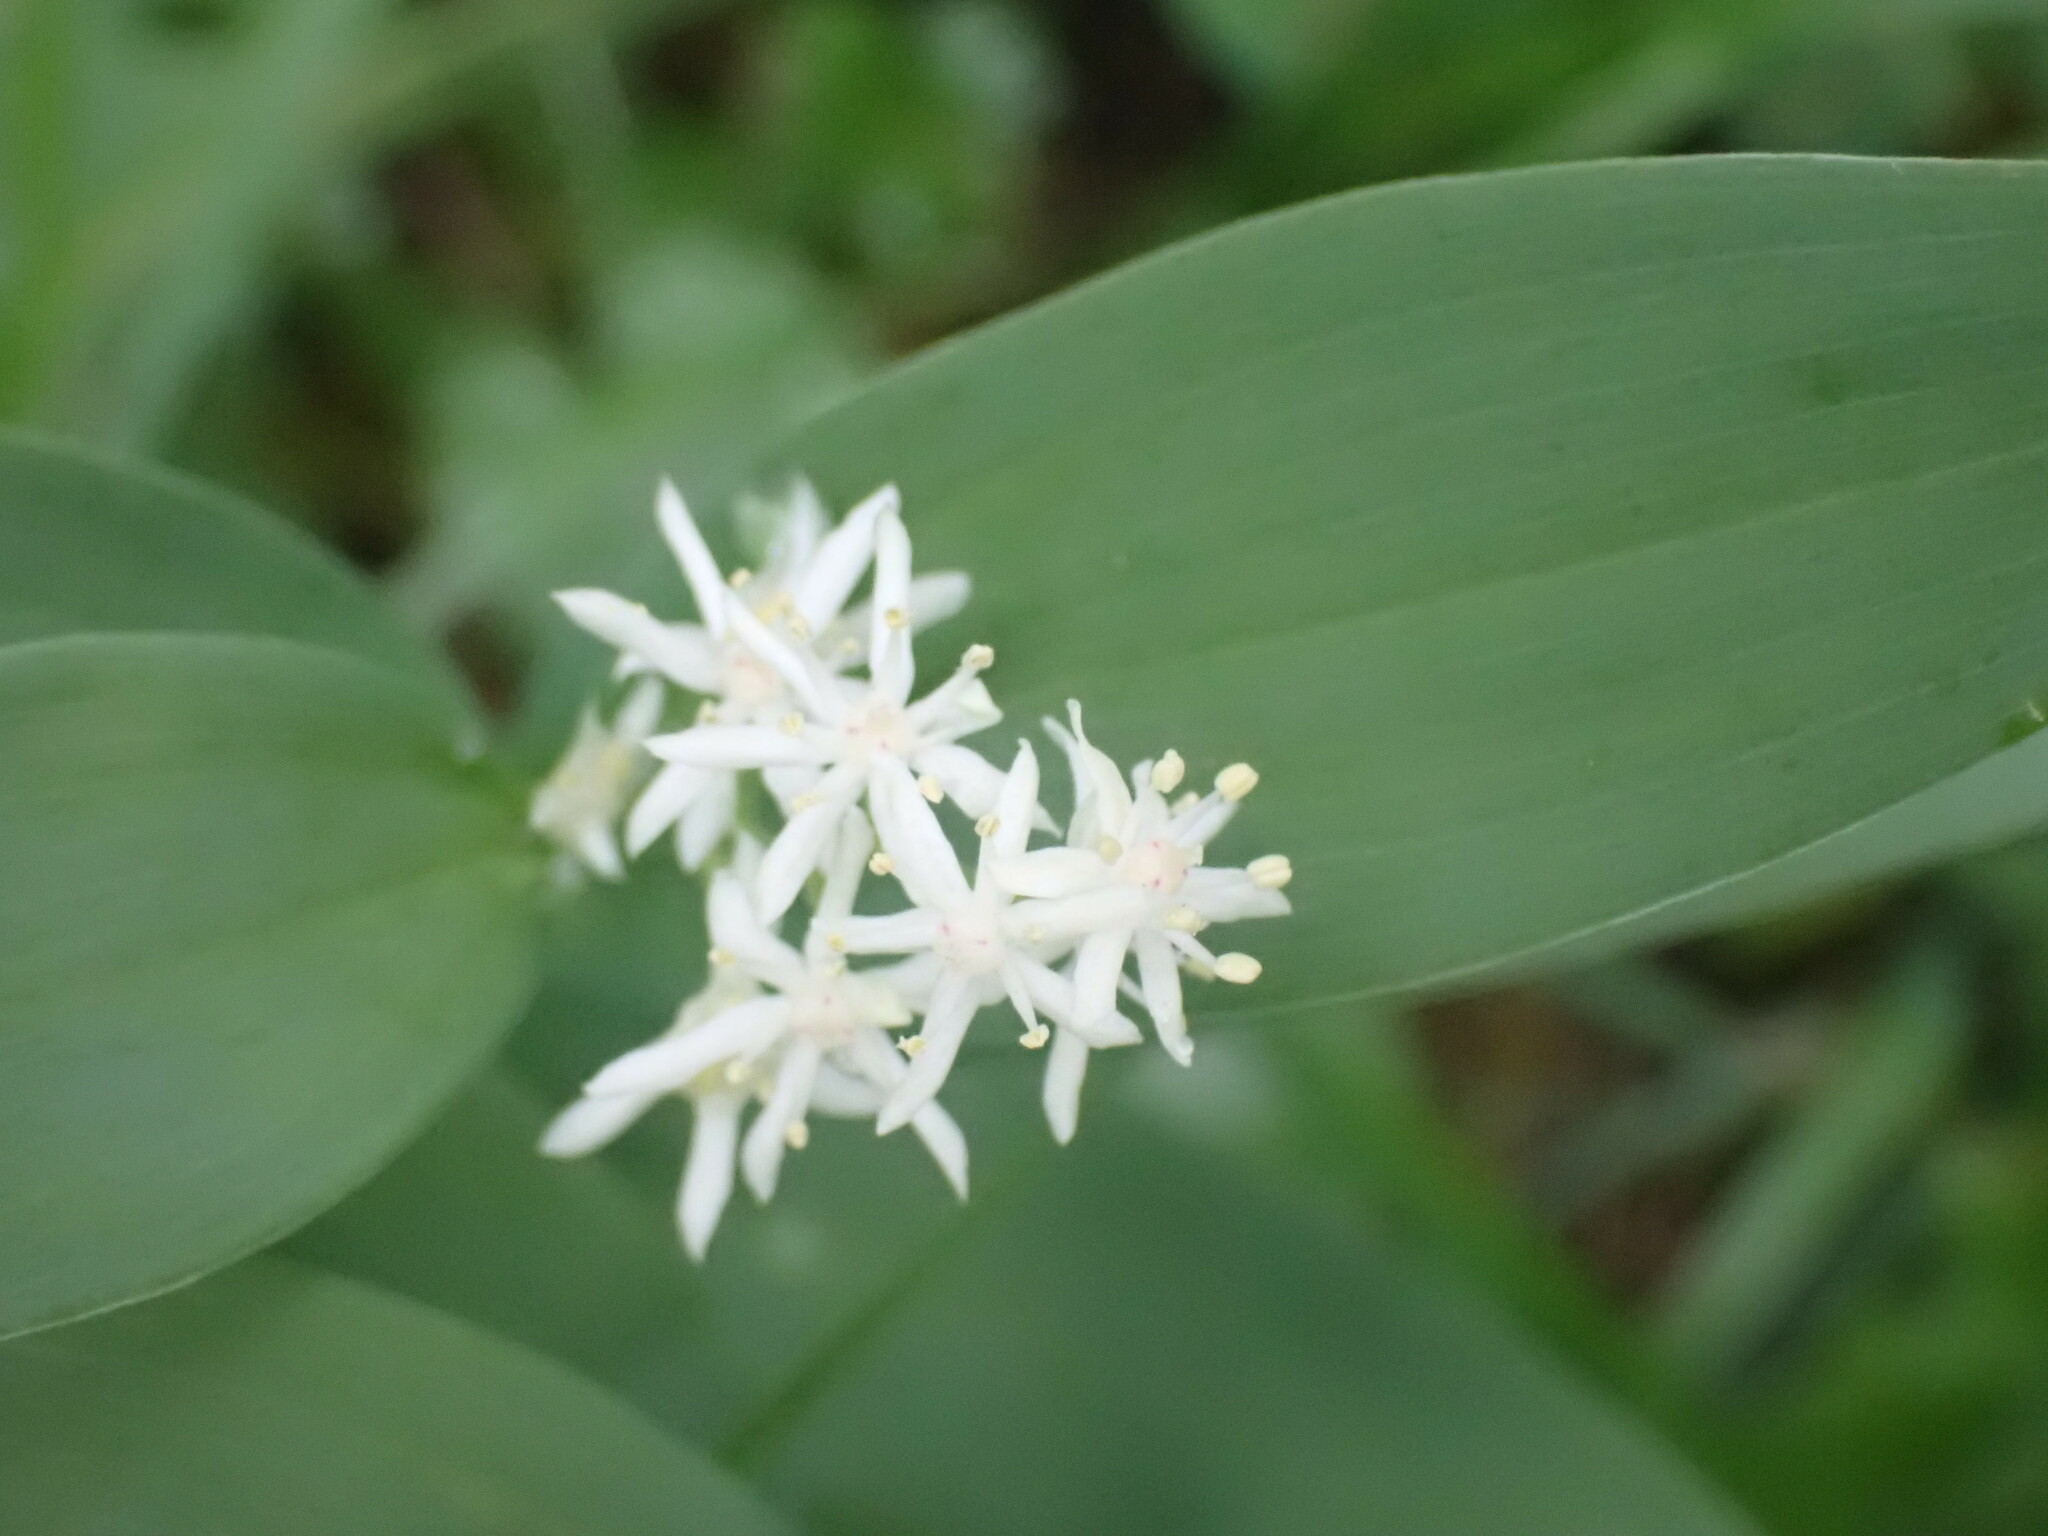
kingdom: Plantae
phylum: Tracheophyta
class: Liliopsida
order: Asparagales
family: Asparagaceae
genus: Maianthemum
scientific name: Maianthemum stellatum
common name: Little false solomon's seal
